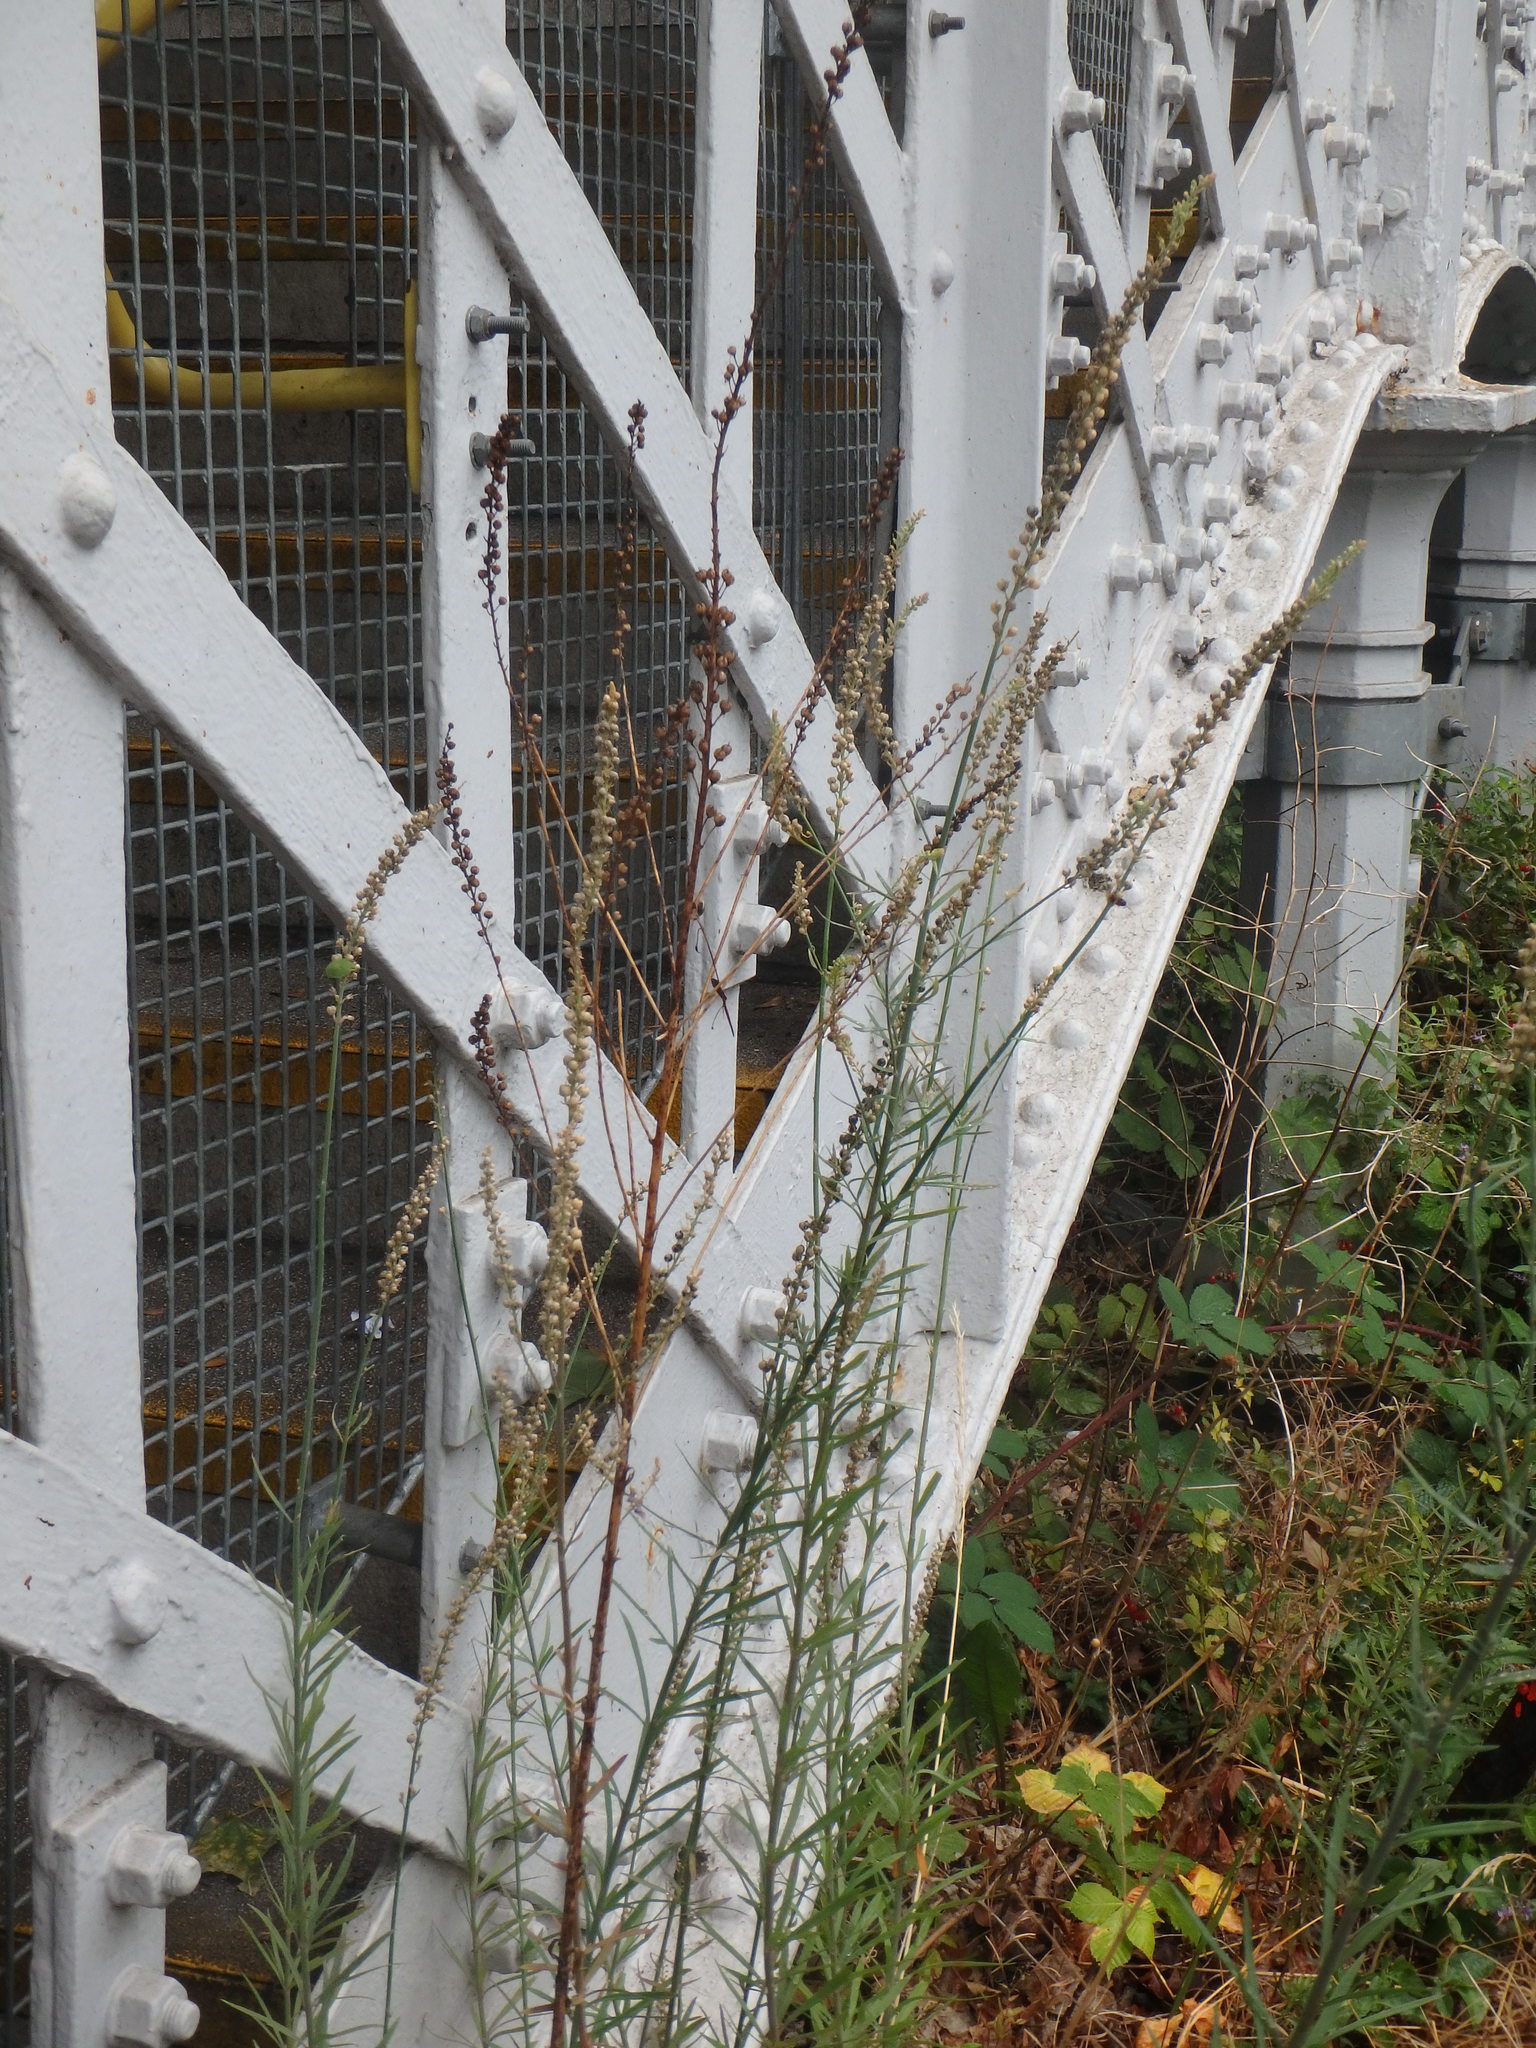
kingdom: Plantae
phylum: Tracheophyta
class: Magnoliopsida
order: Lamiales
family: Plantaginaceae
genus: Linaria
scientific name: Linaria purpurea
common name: Purple toadflax
